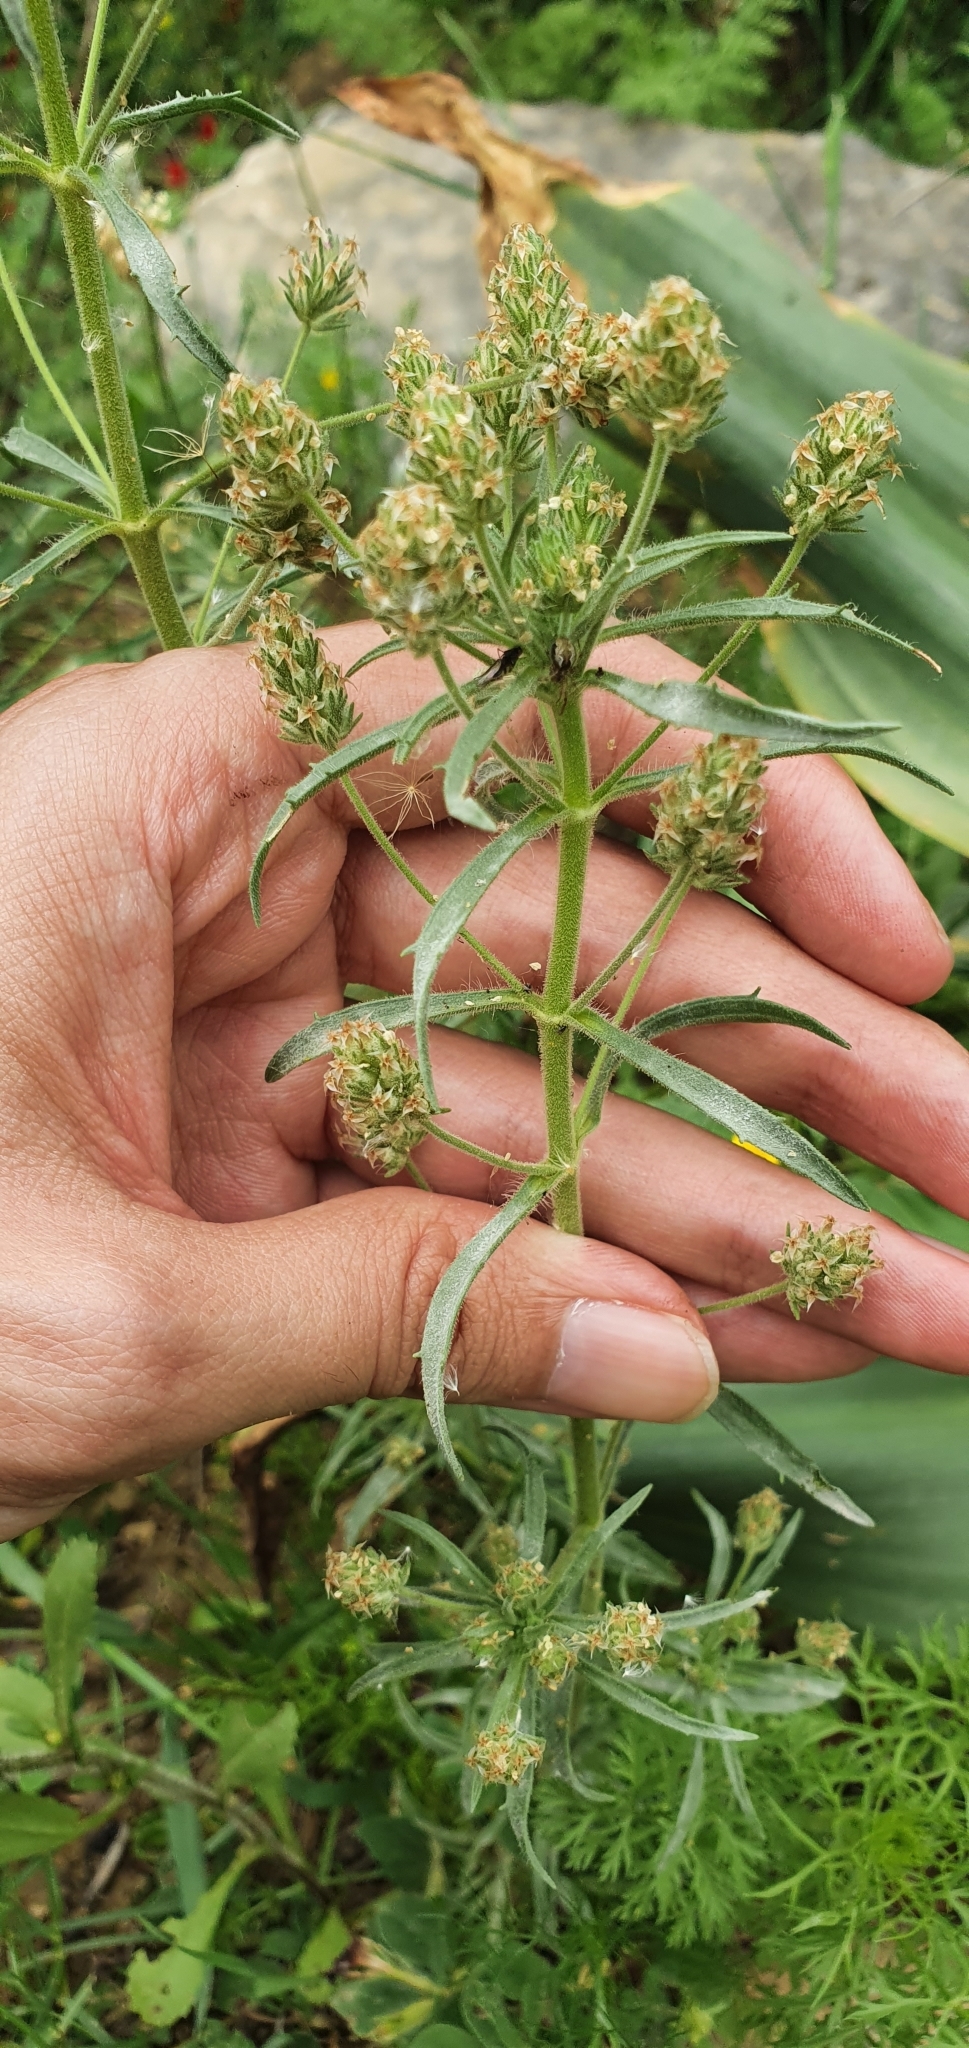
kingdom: Plantae
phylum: Tracheophyta
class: Magnoliopsida
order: Lamiales
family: Plantaginaceae
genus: Plantago
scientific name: Plantago afra
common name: Glandular plantain
